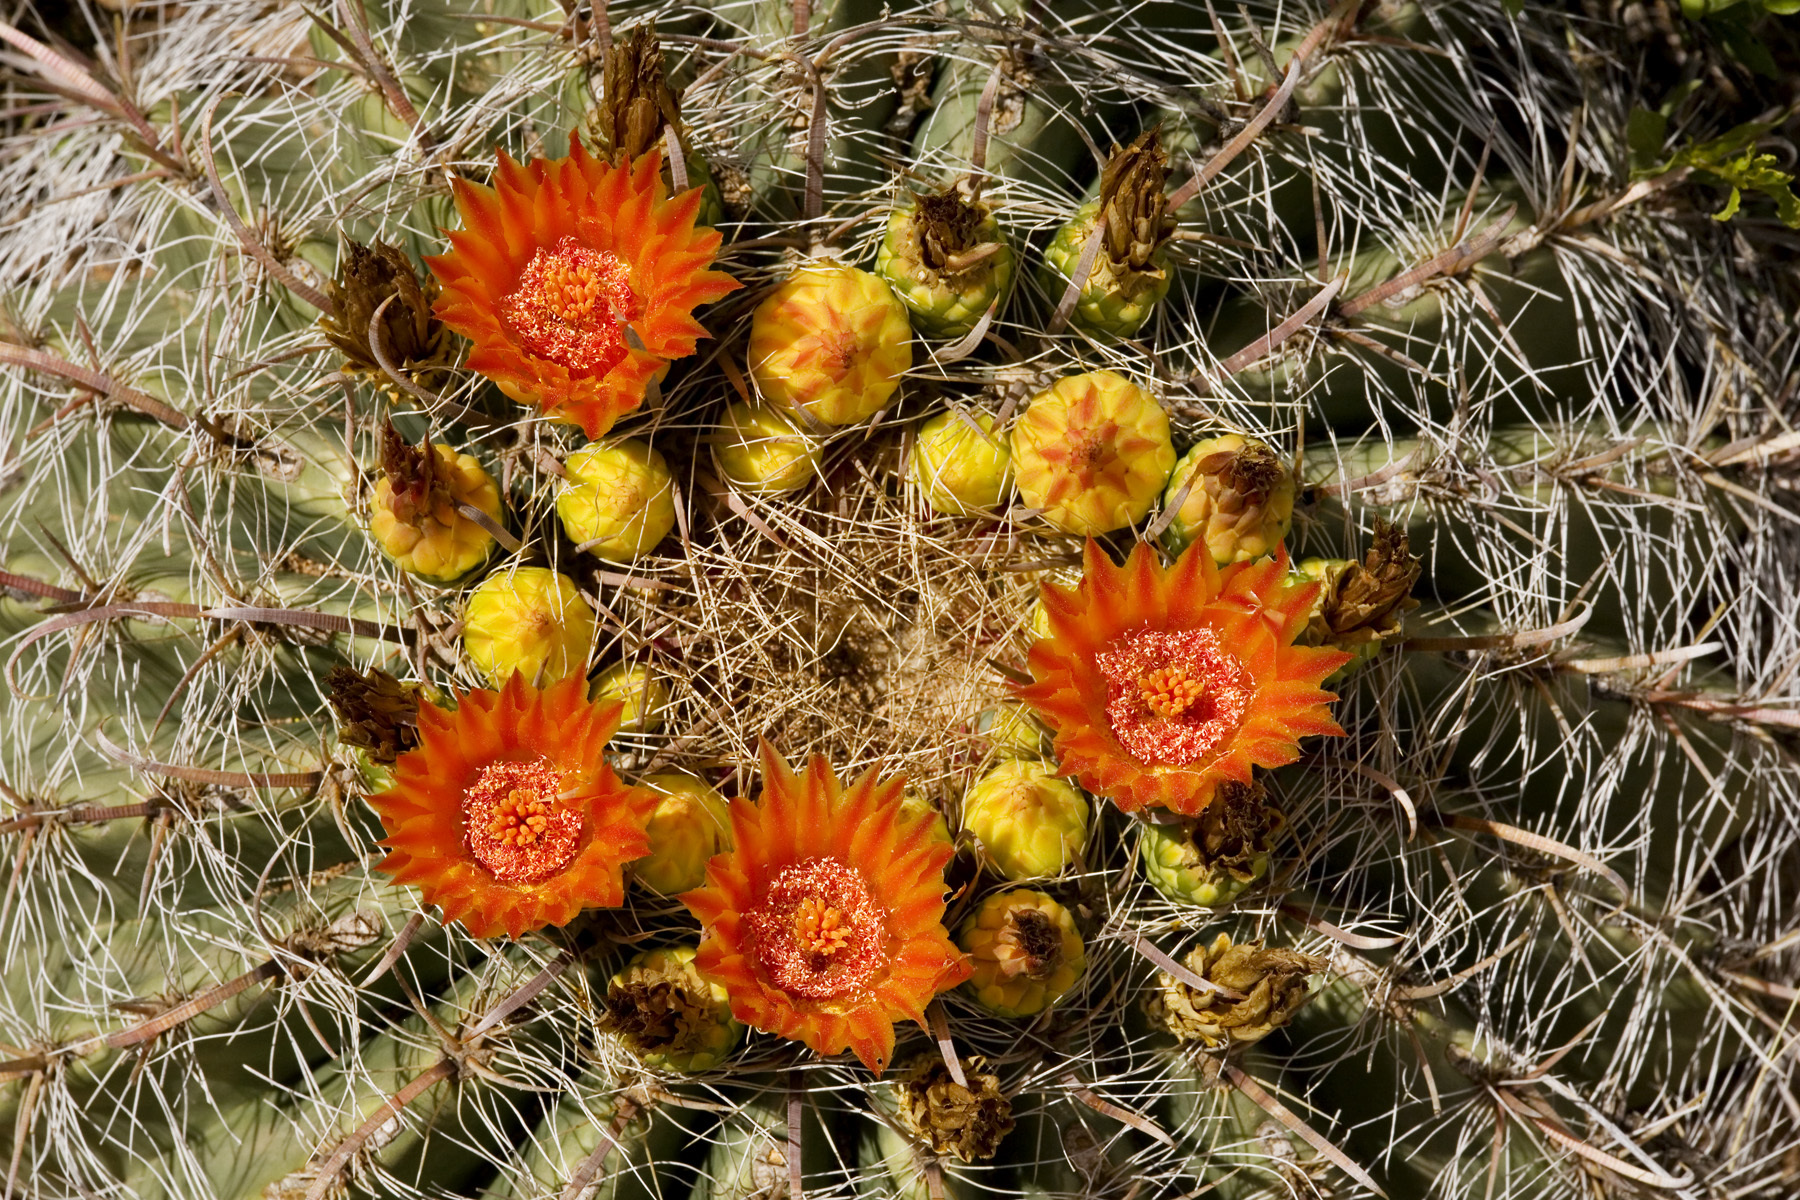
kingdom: Plantae
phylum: Tracheophyta
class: Magnoliopsida
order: Caryophyllales
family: Cactaceae
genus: Ferocactus
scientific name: Ferocactus wislizeni
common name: Candy barrel cactus
